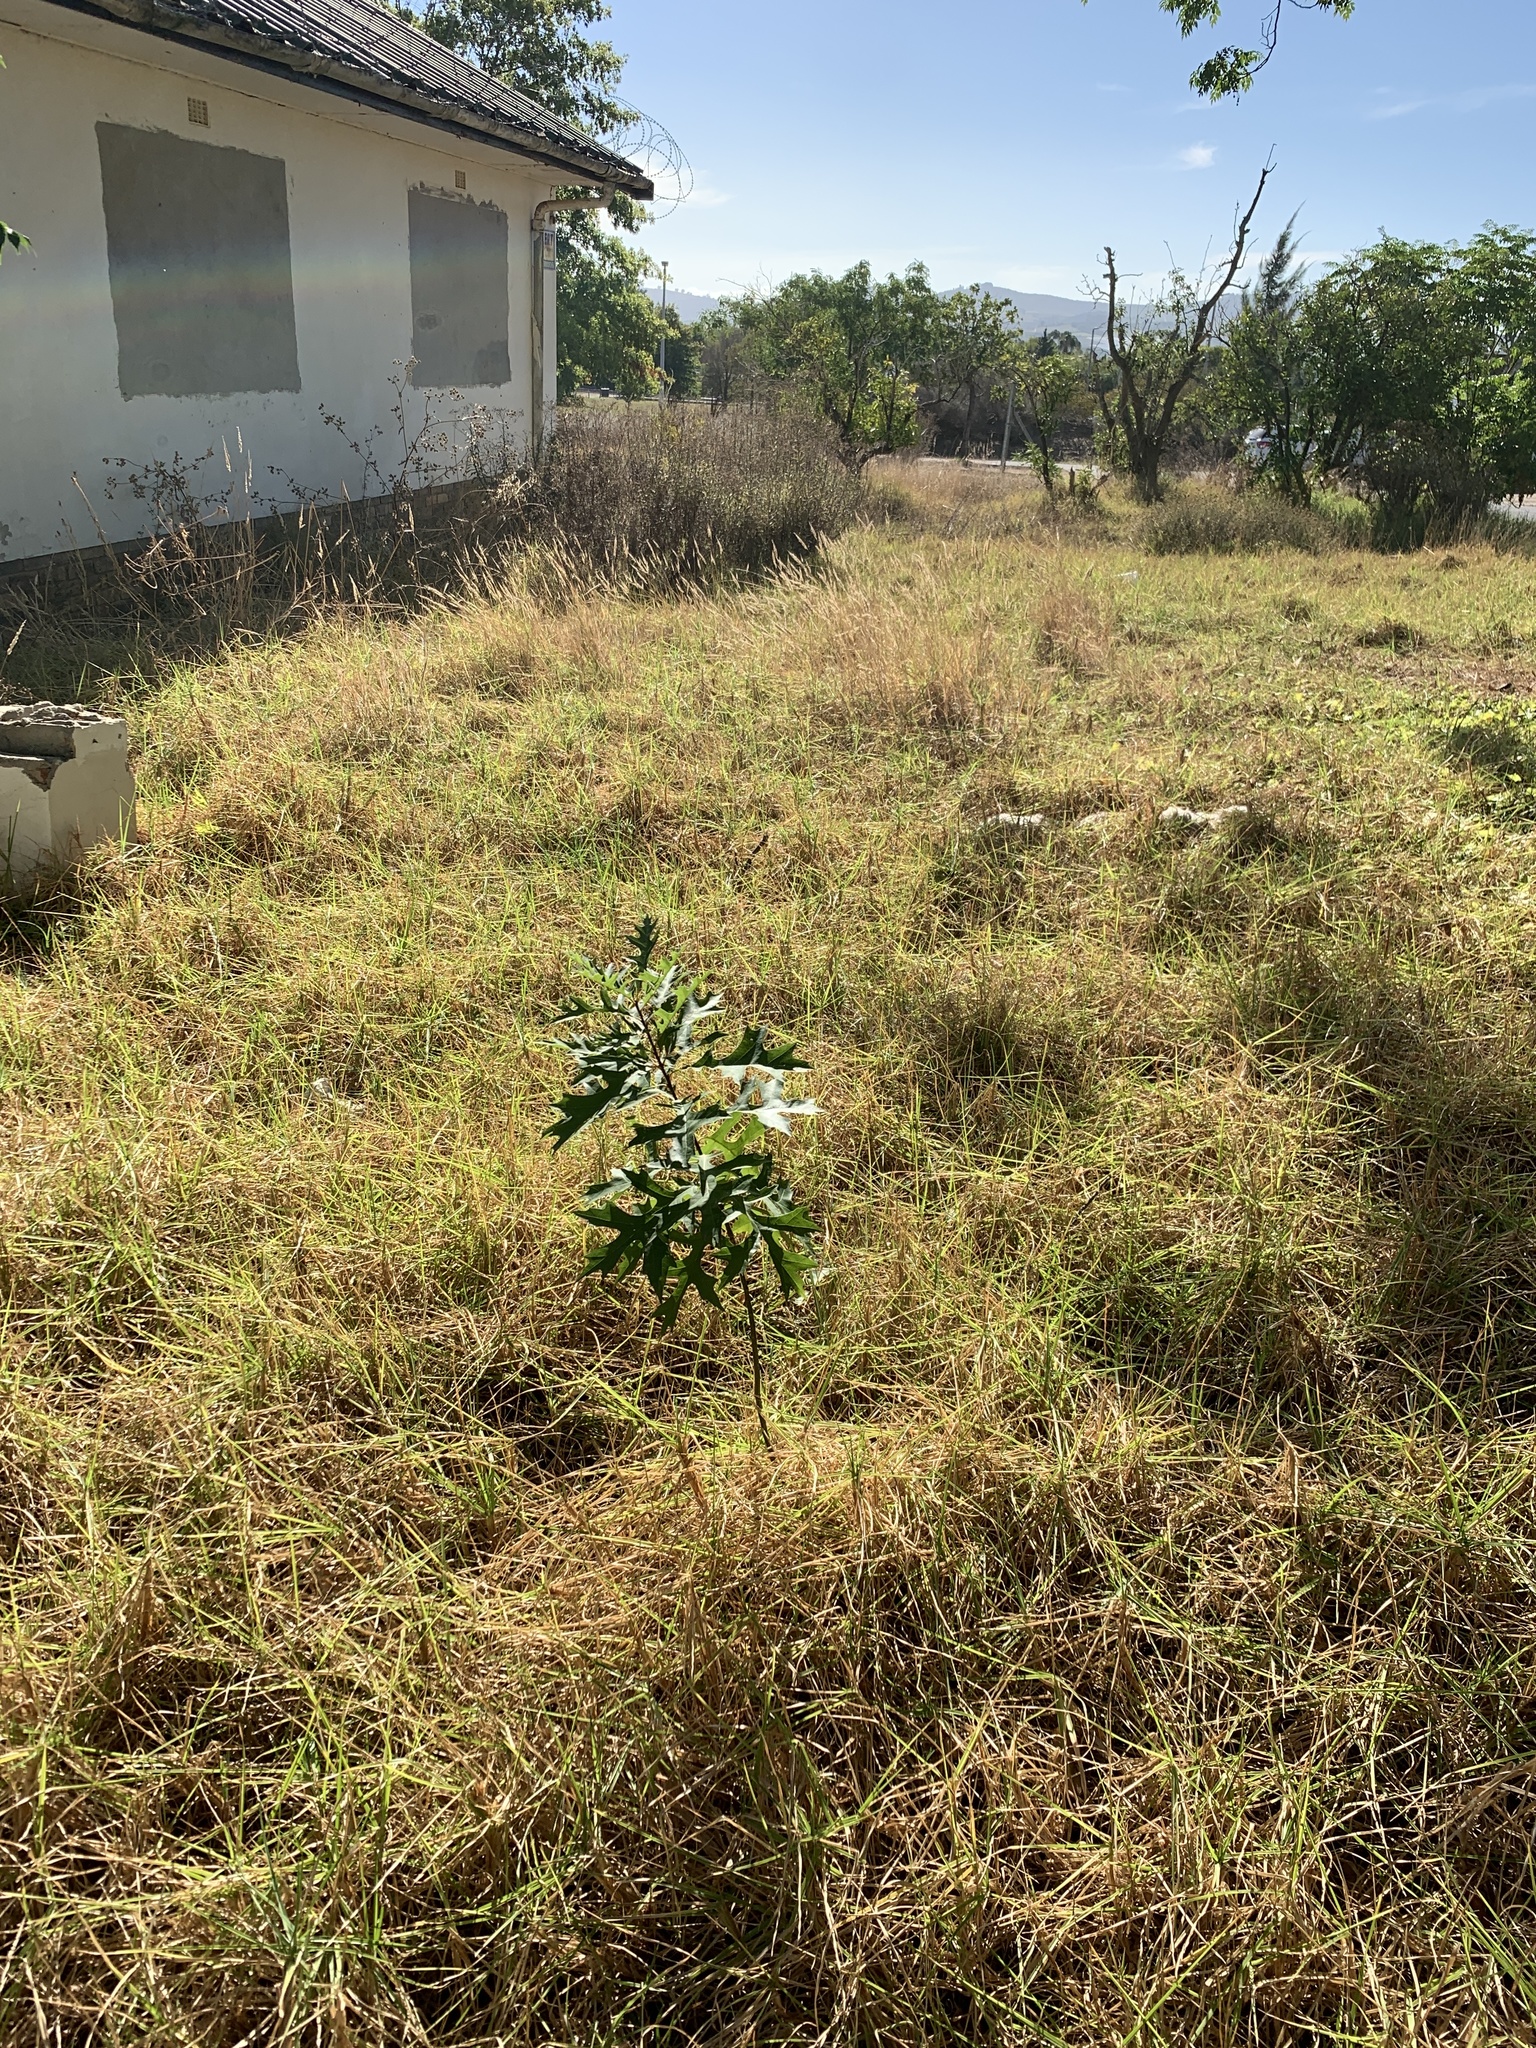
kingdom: Plantae
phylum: Tracheophyta
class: Magnoliopsida
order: Fagales
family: Fagaceae
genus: Quercus
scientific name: Quercus palustris
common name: Pin oak
